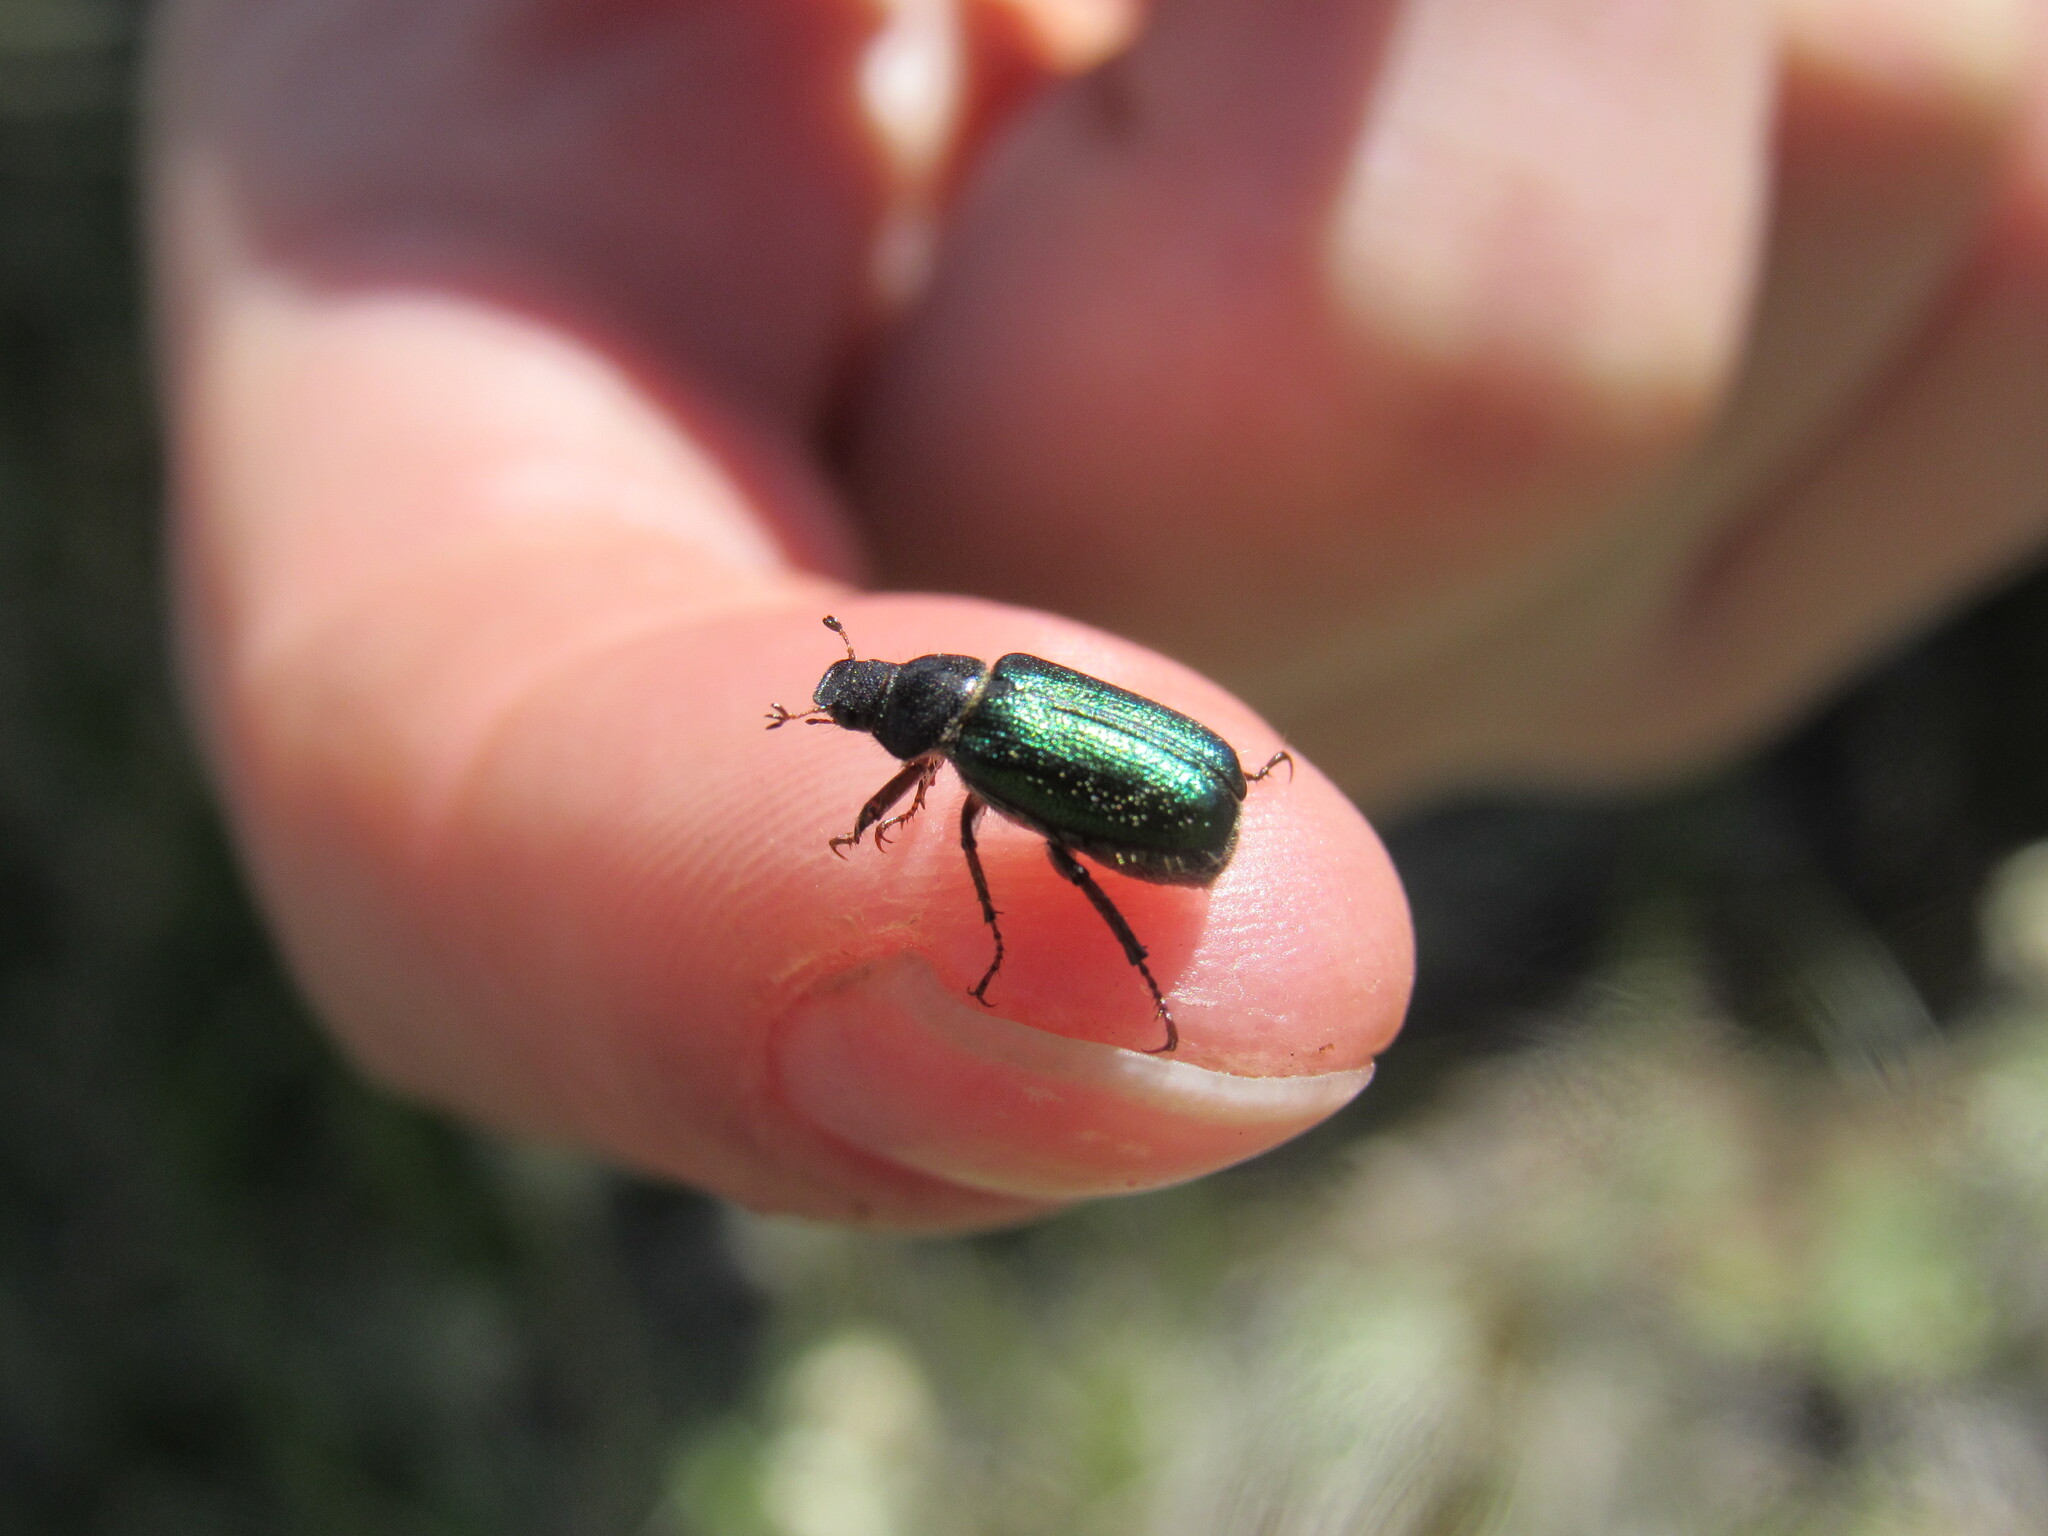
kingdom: Animalia
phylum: Arthropoda
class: Insecta
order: Coleoptera
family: Scarabaeidae
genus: Dichelonyx
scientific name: Dichelonyx backii
